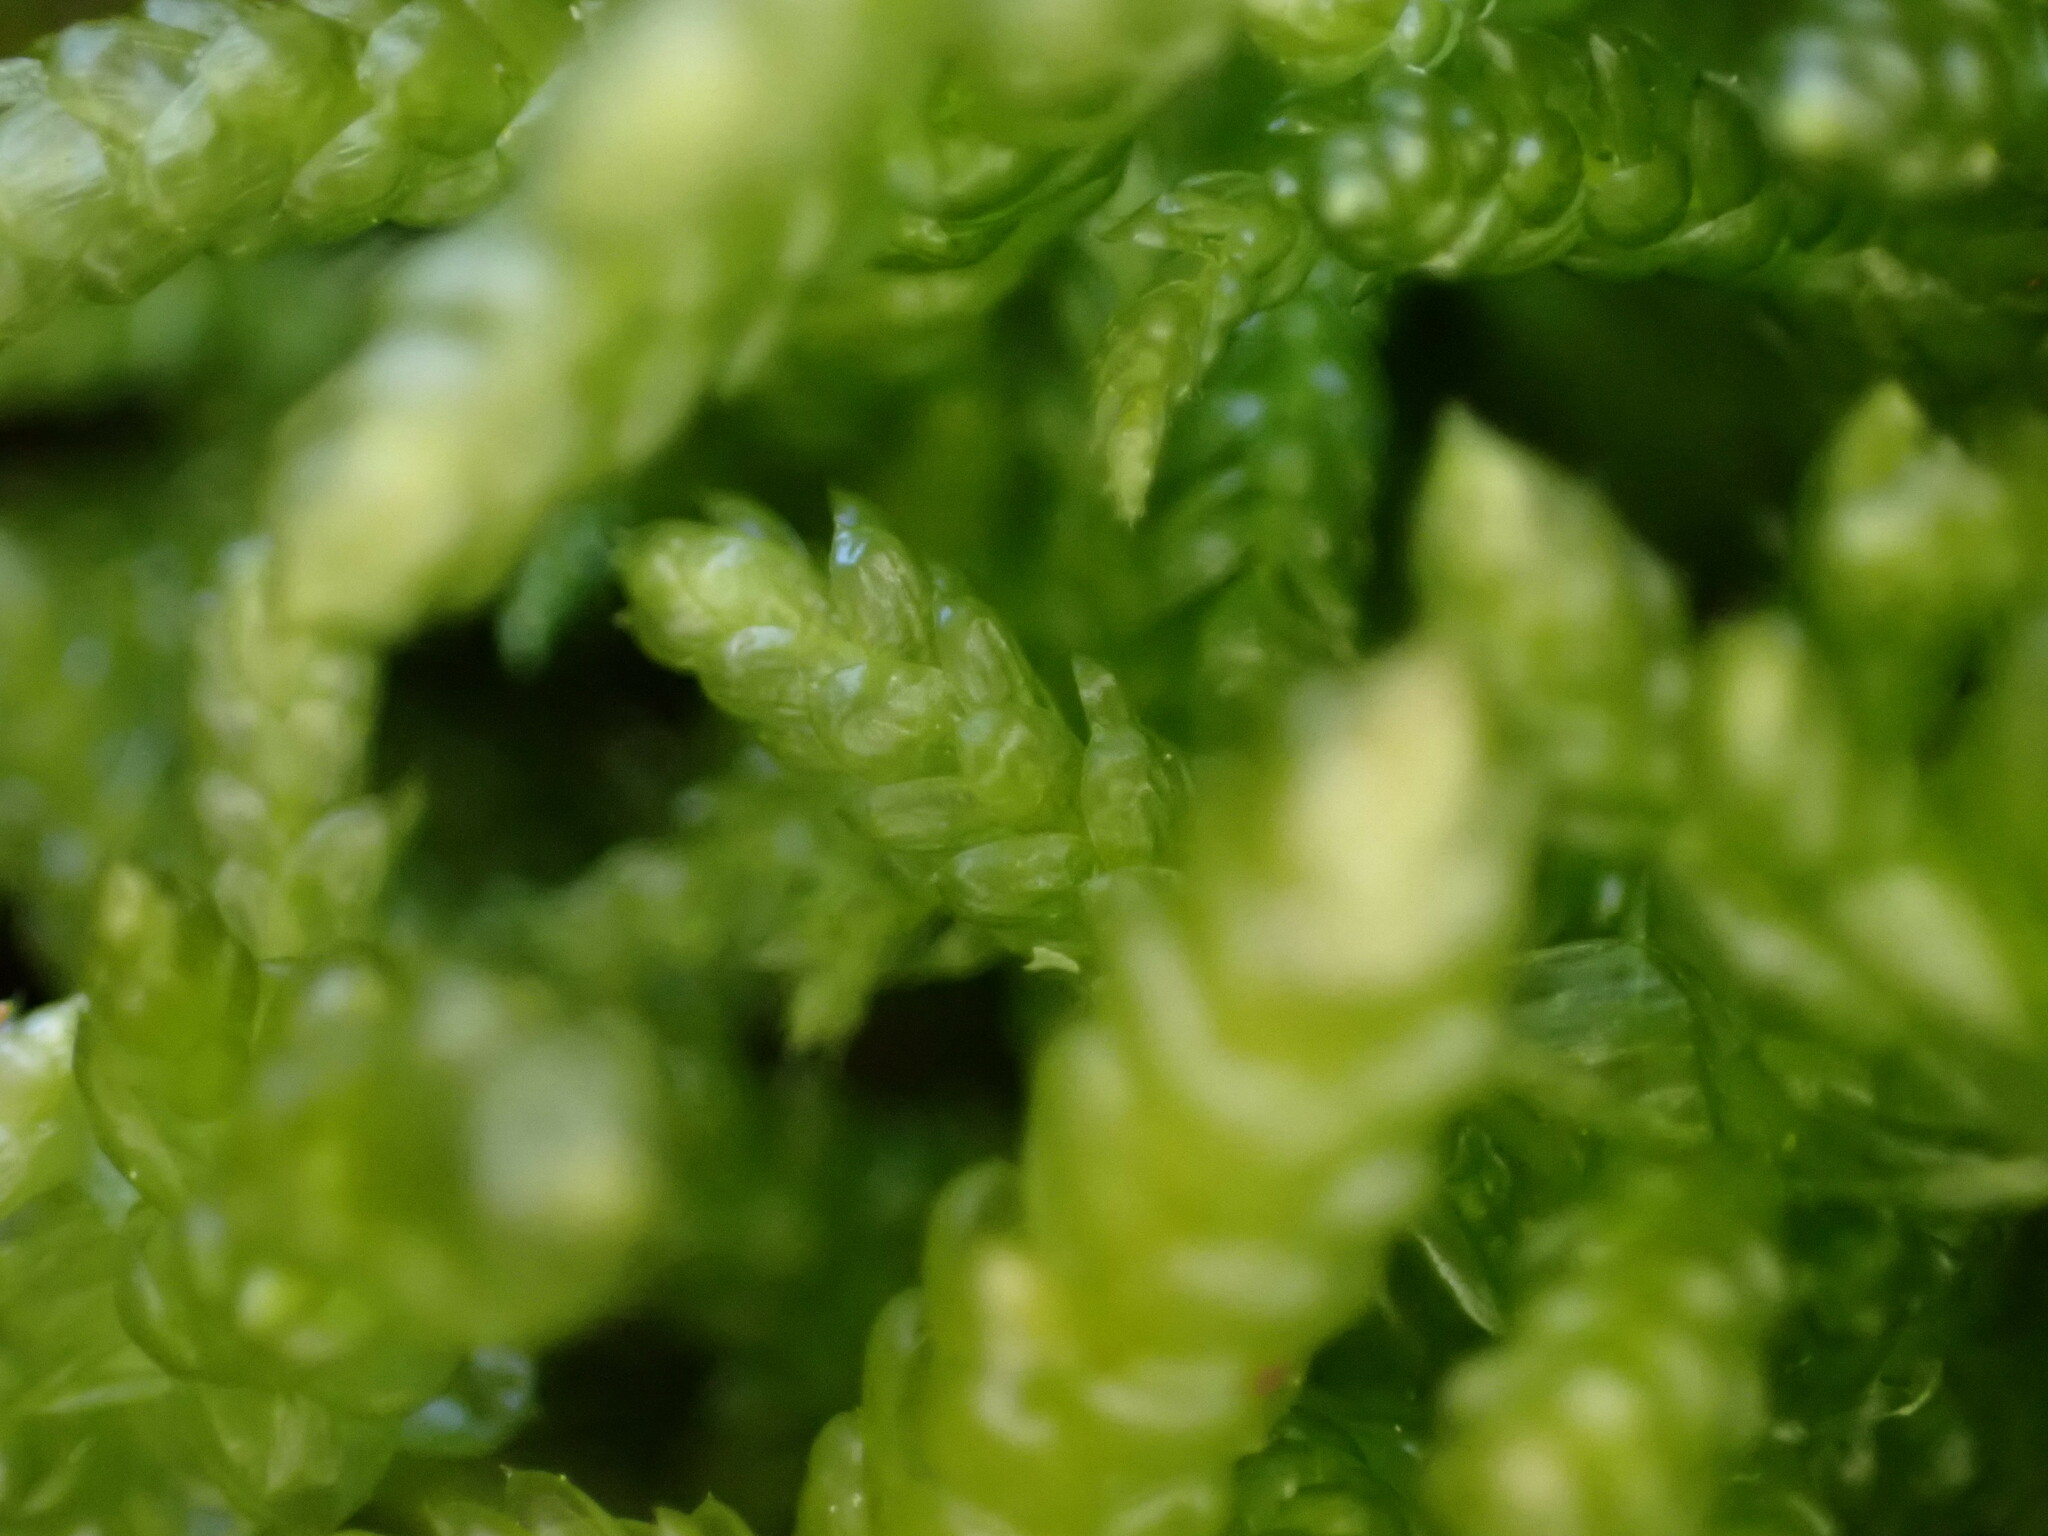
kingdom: Plantae
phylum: Bryophyta
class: Bryopsida
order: Hypnales
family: Brachytheciaceae
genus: Pseudoscleropodium
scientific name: Pseudoscleropodium purum
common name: Neat feather-moss
